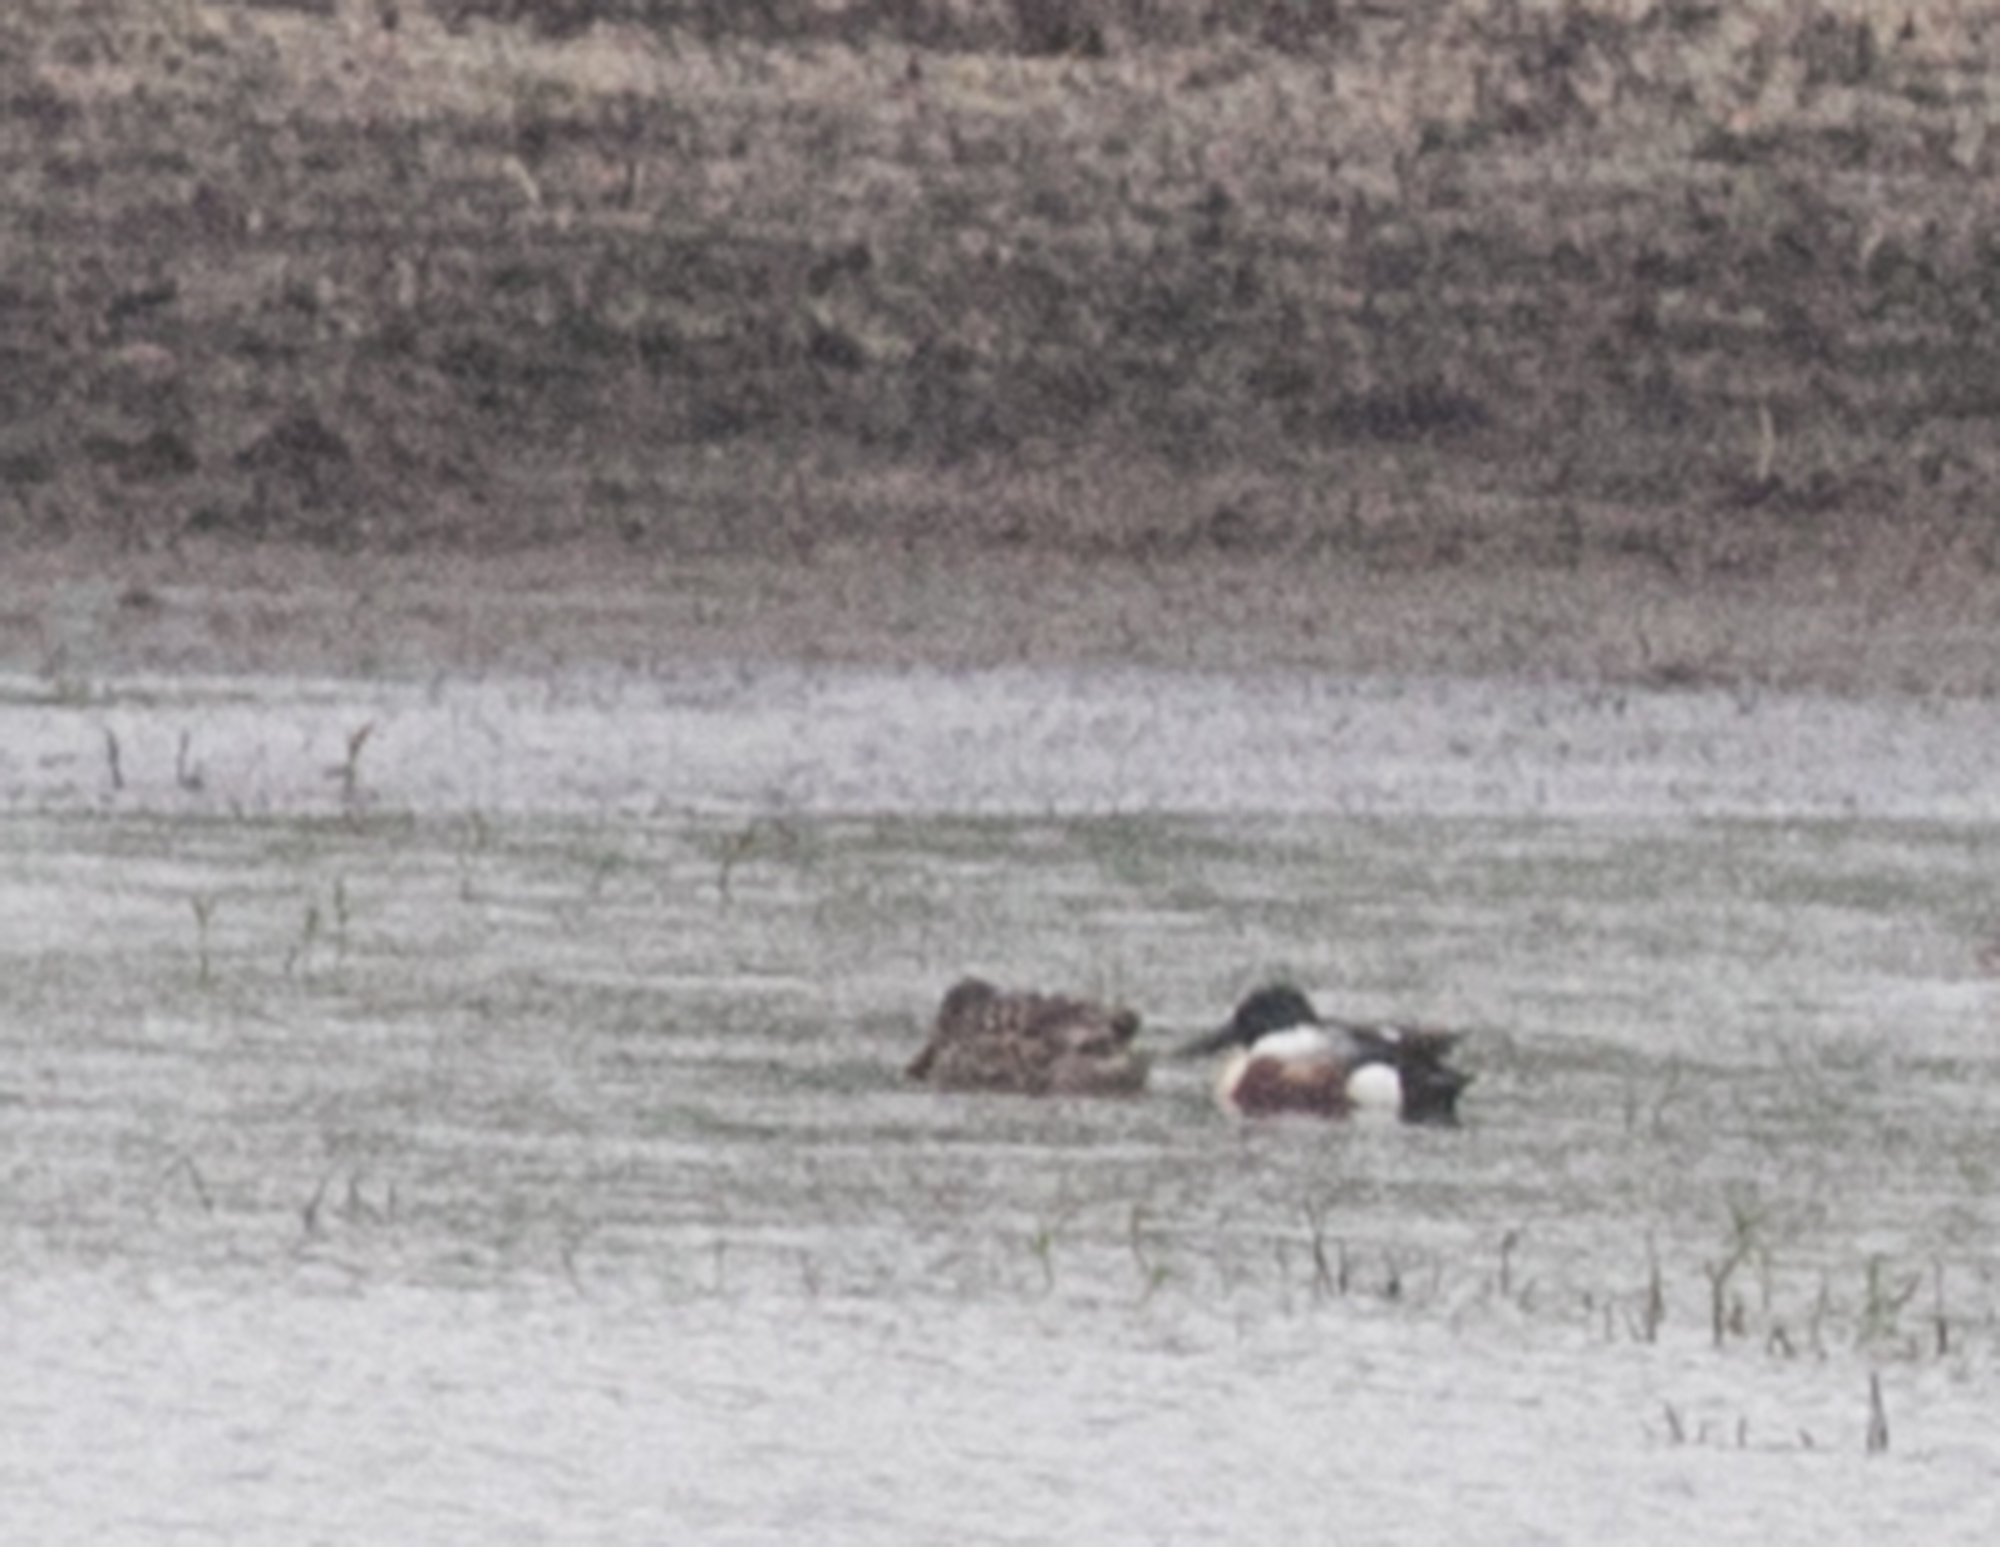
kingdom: Animalia
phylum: Chordata
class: Aves
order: Anseriformes
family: Anatidae
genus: Spatula
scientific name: Spatula clypeata
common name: Northern shoveler
